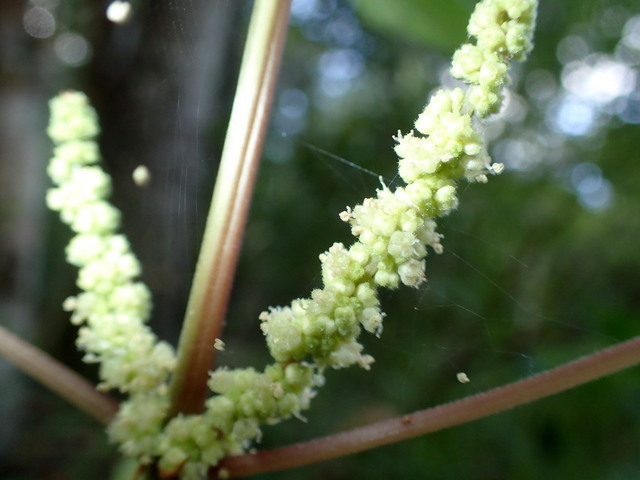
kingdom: Plantae
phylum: Tracheophyta
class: Magnoliopsida
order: Rosales
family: Urticaceae
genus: Boehmeria
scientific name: Boehmeria cylindrica
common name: Bog-hemp
